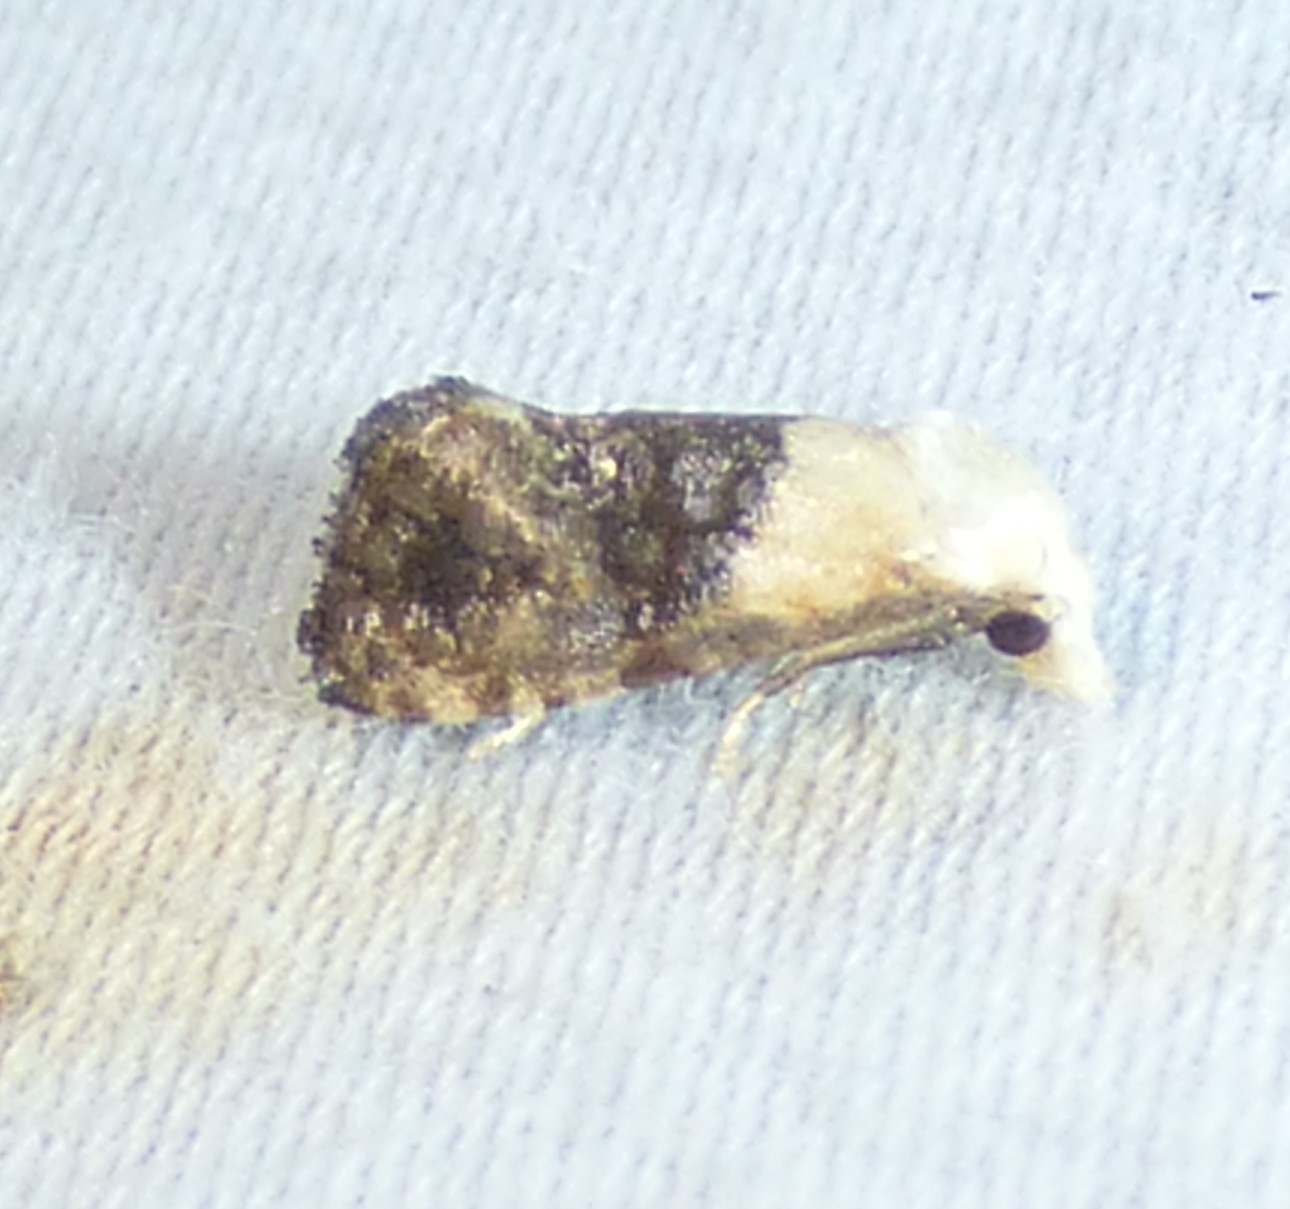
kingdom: Animalia
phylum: Arthropoda
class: Insecta
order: Lepidoptera
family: Tortricidae
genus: Eugnosta
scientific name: Eugnosta erigeronana
